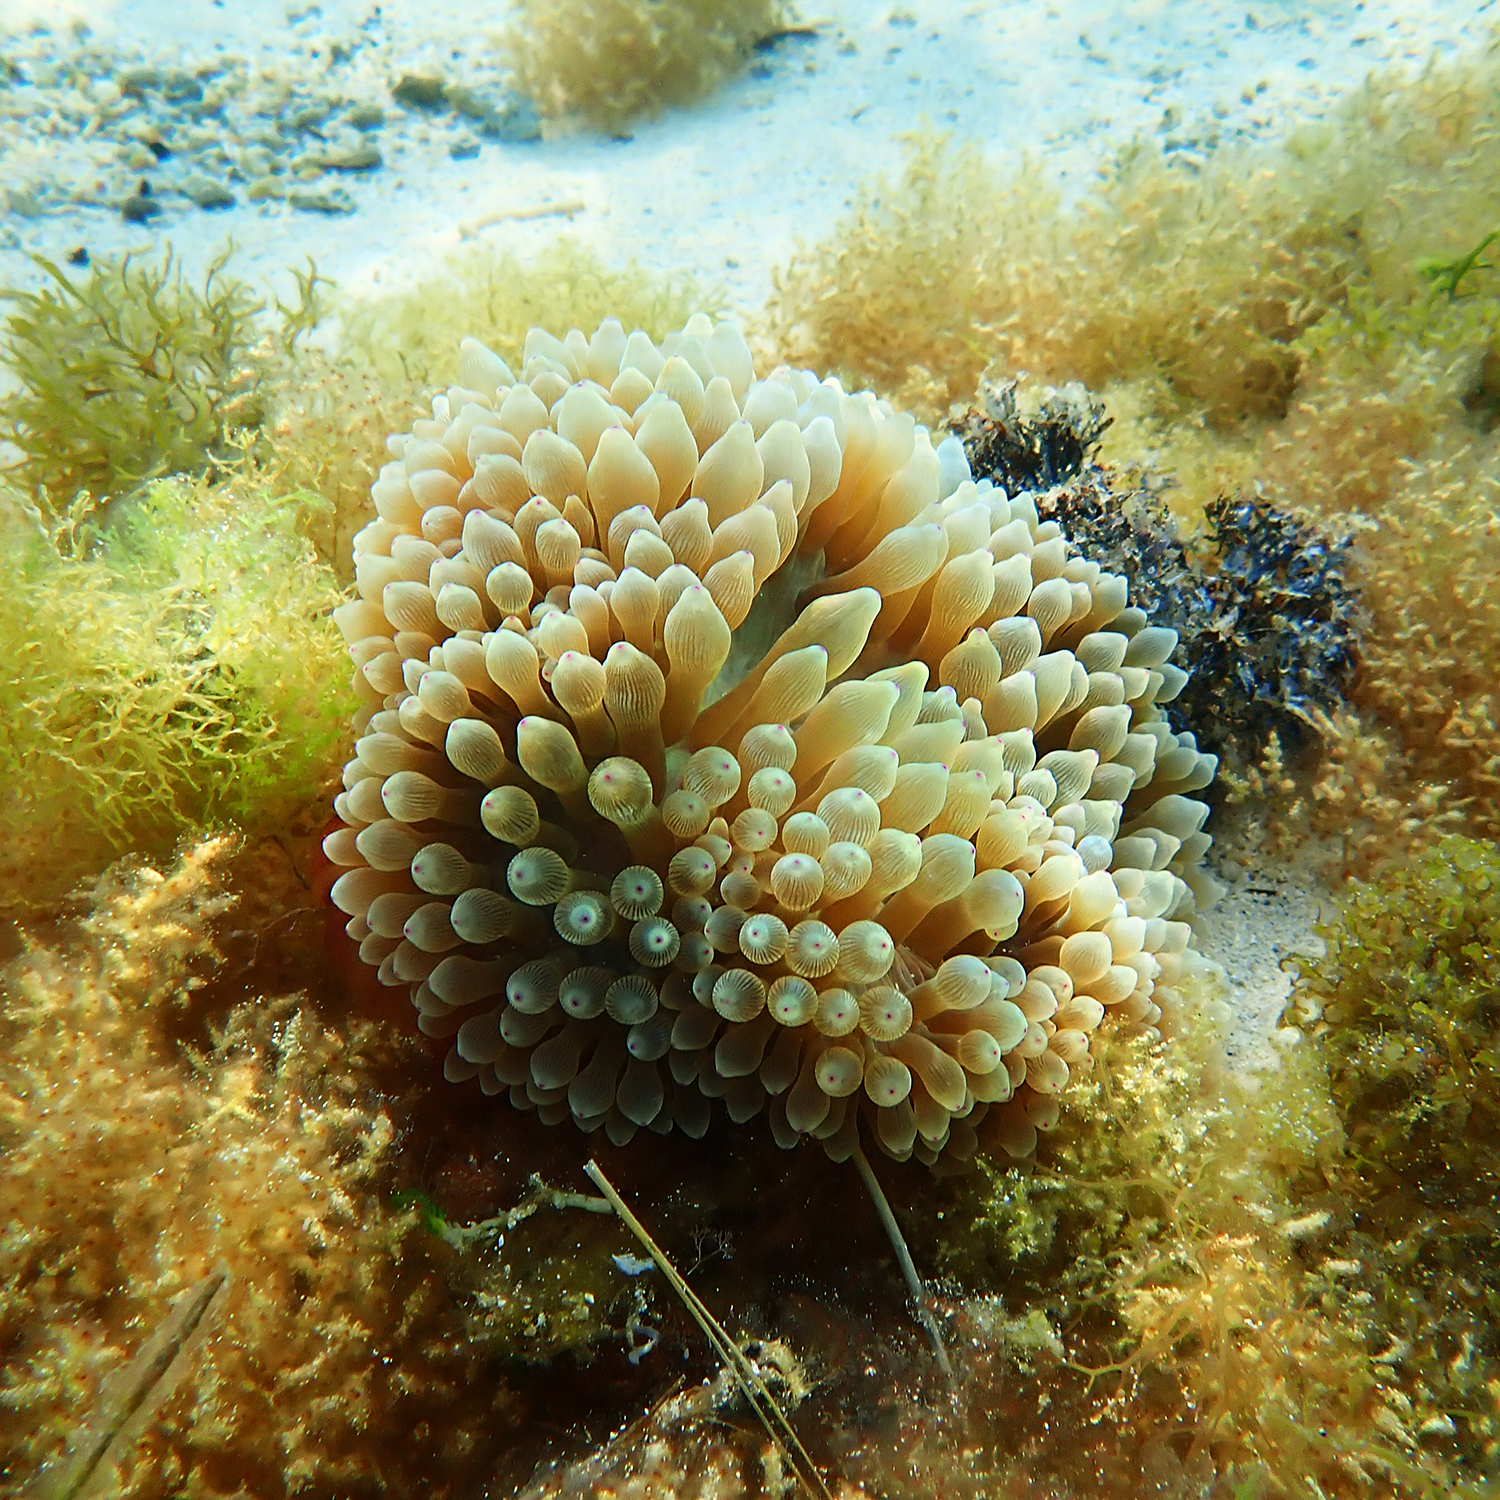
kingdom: Animalia
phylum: Cnidaria
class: Anthozoa
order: Actiniaria
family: Actiniidae
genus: Entacmaea
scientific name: Entacmaea quadricolor
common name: Bulb tentacle sea anemone
